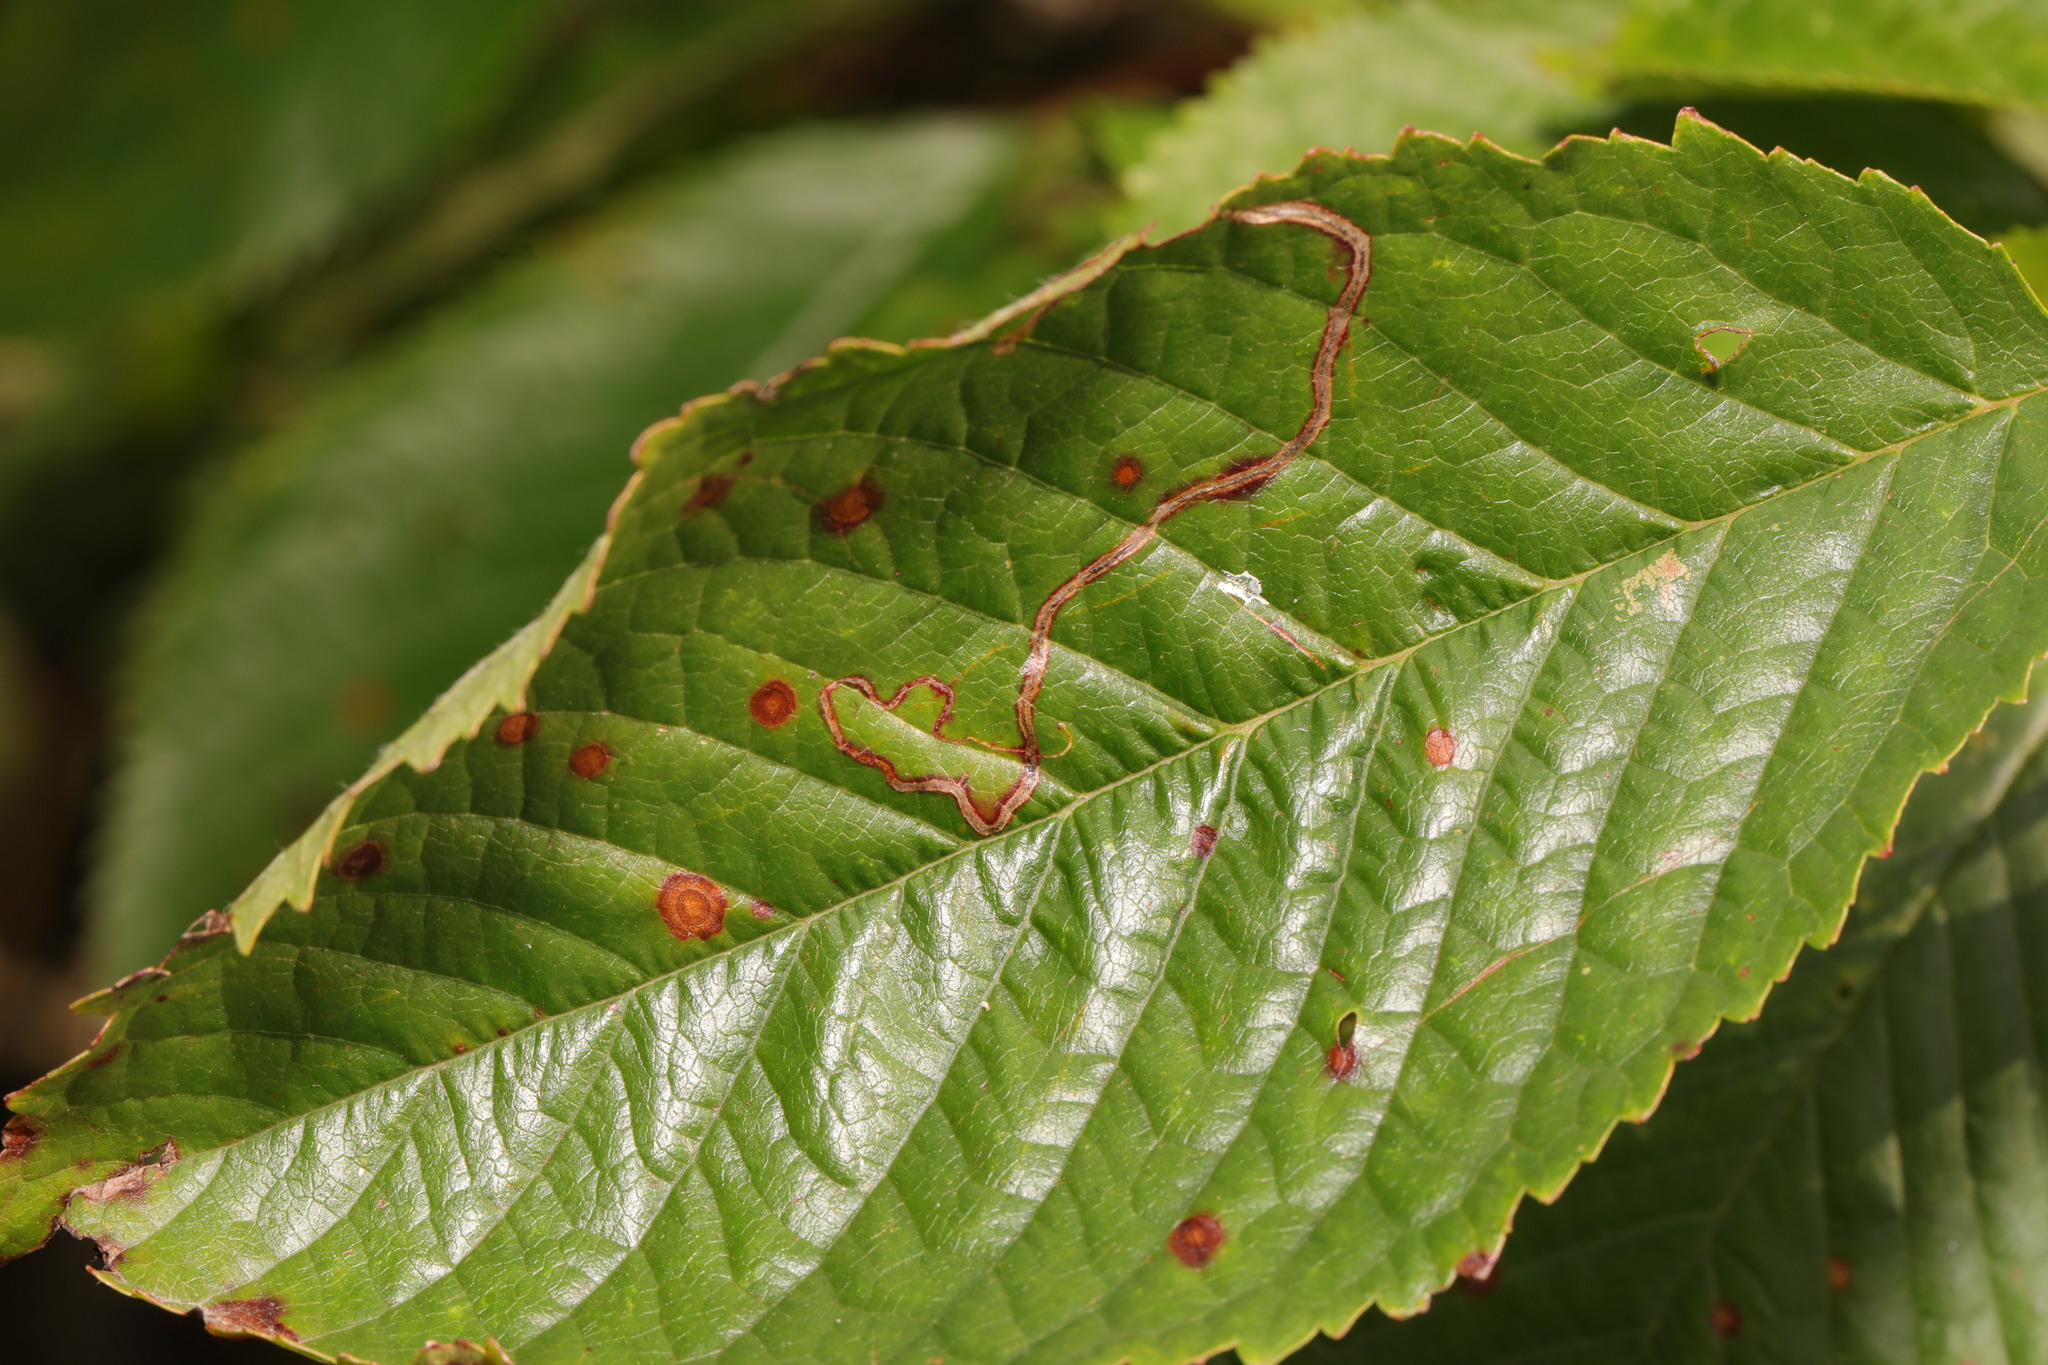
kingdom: Animalia
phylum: Arthropoda
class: Insecta
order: Lepidoptera
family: Lyonetiidae
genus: Lyonetia
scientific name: Lyonetia clerkella
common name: Apple leaf miner
